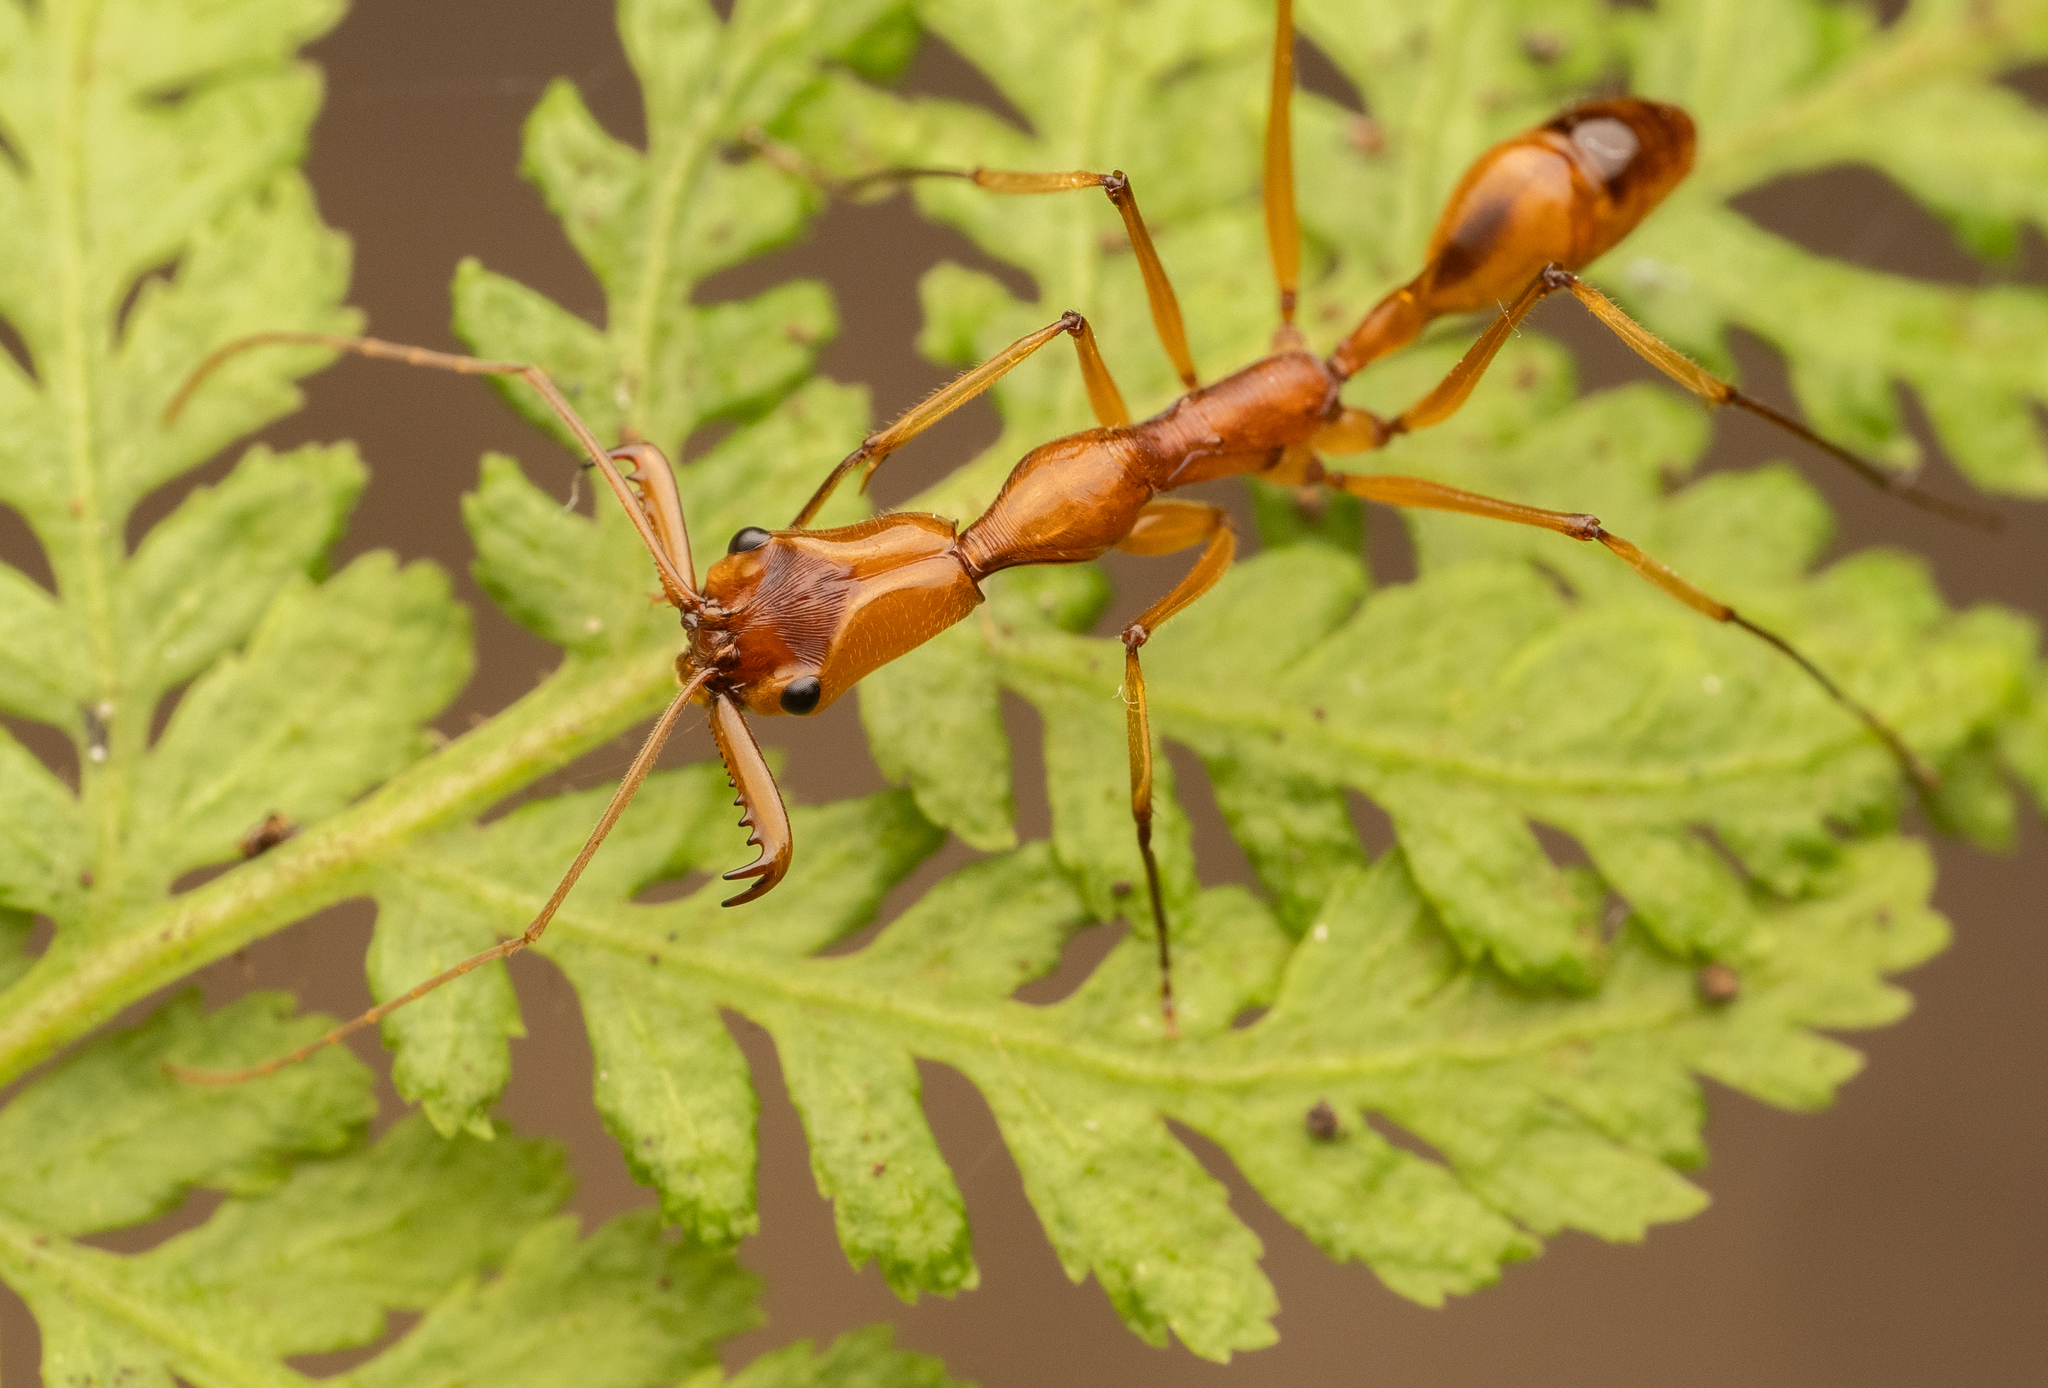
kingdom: Animalia
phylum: Arthropoda
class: Insecta
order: Hymenoptera
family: Formicidae
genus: Odontomachus
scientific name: Odontomachus testaceus
